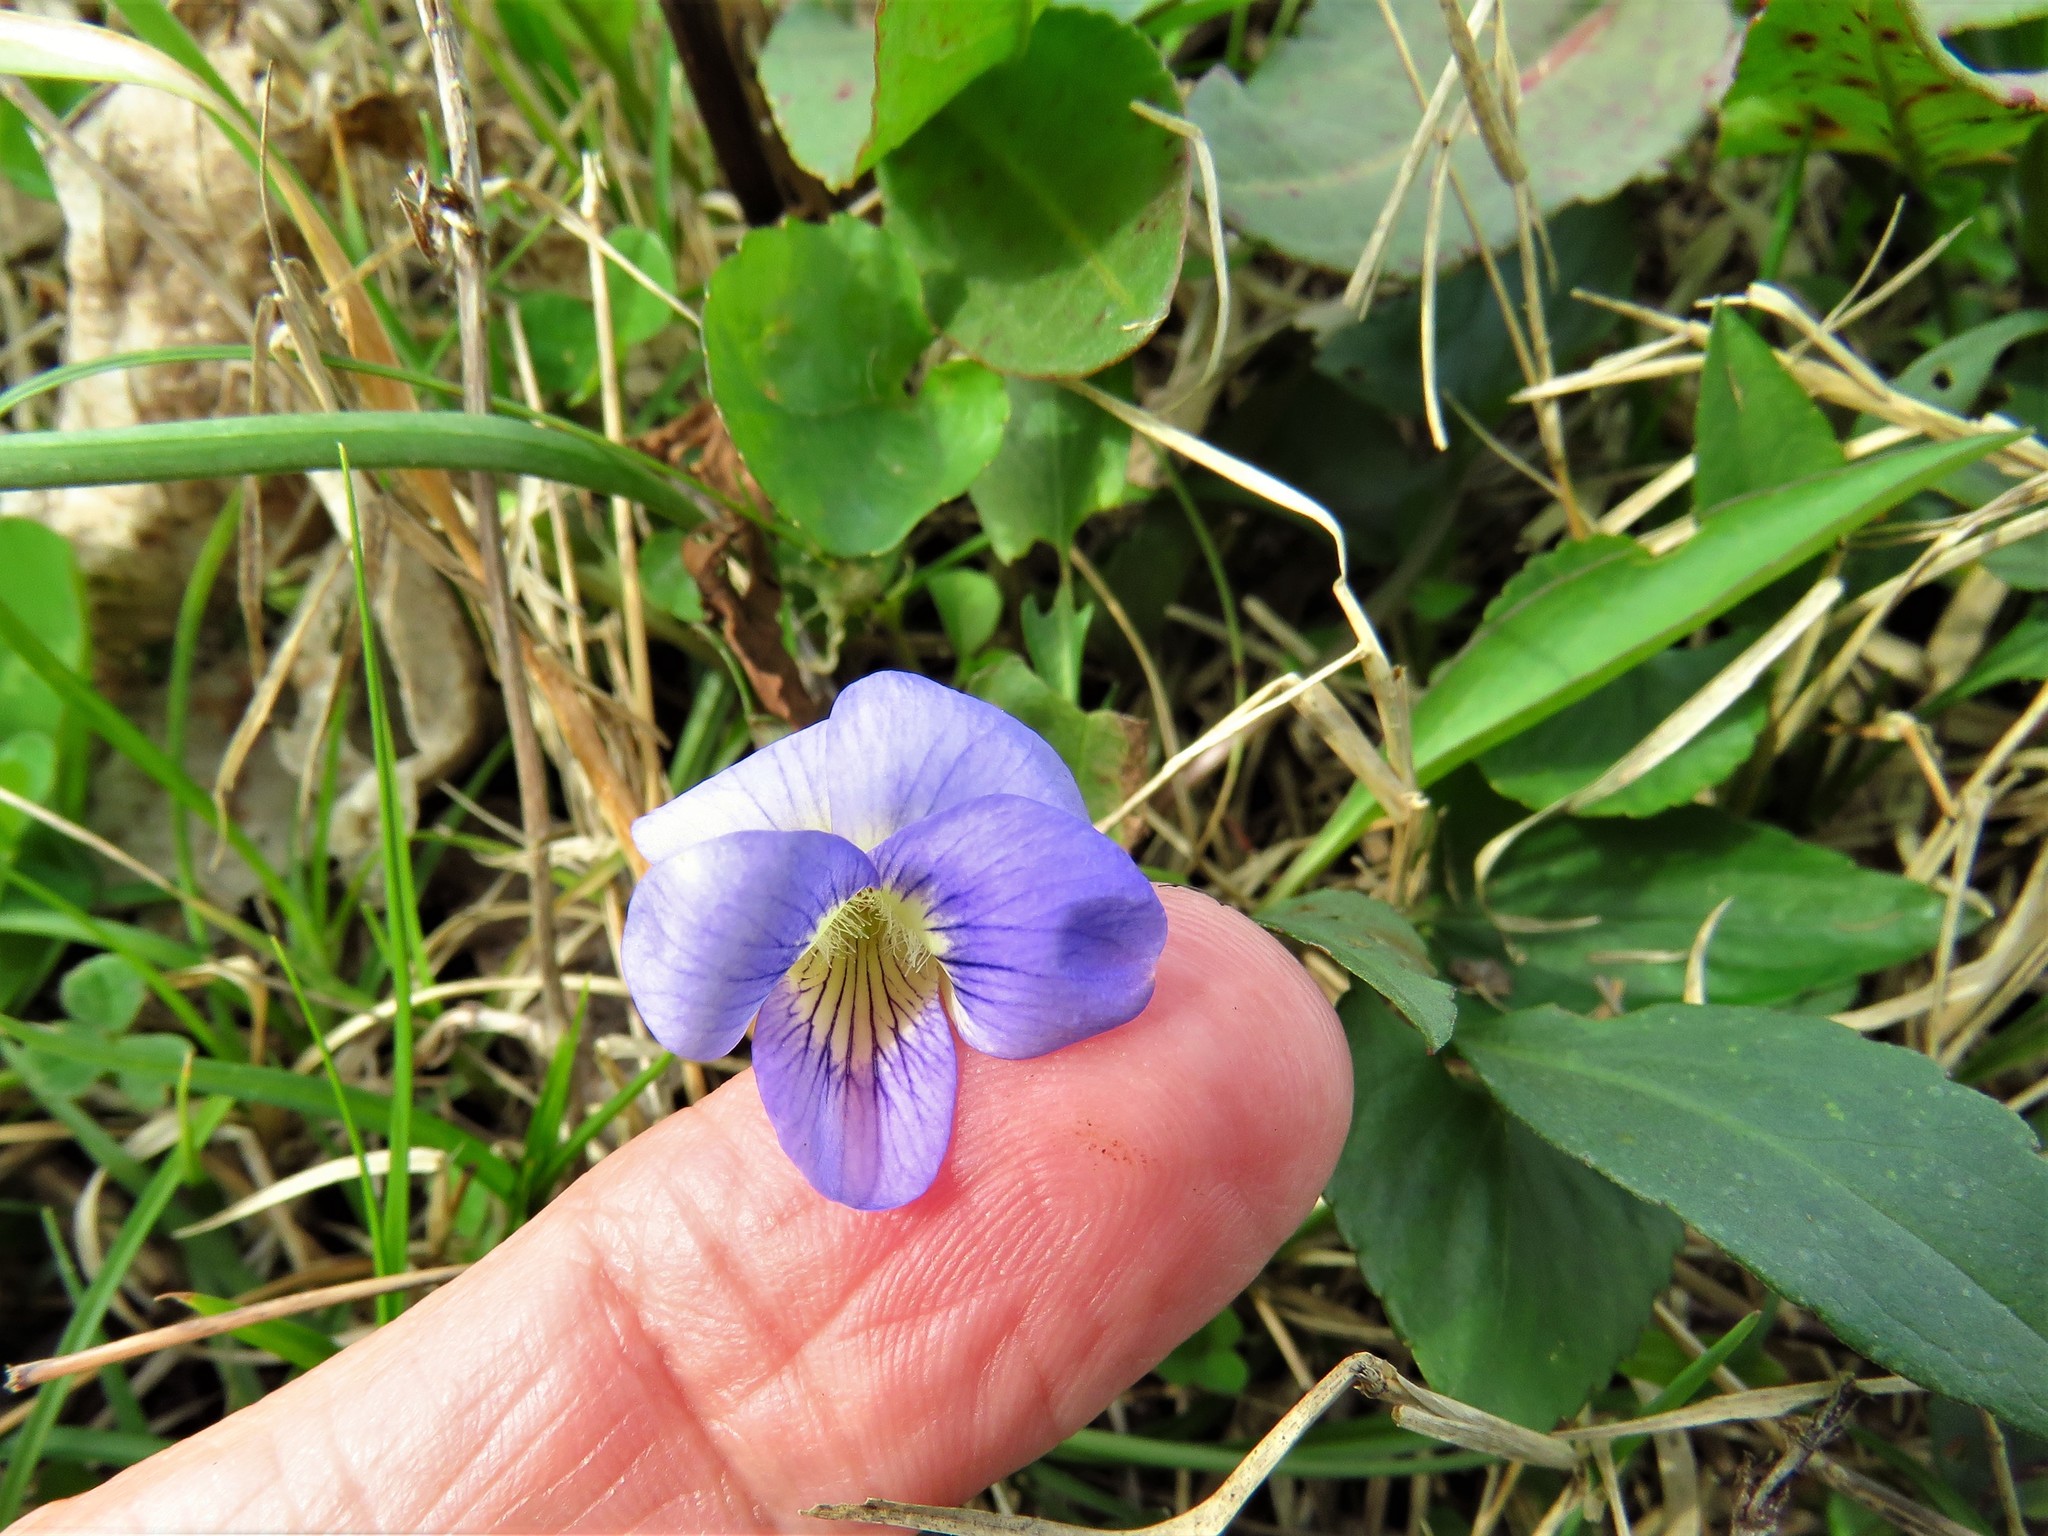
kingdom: Plantae
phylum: Tracheophyta
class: Magnoliopsida
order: Malpighiales
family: Violaceae
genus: Viola
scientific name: Viola sororia
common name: Dooryard violet
